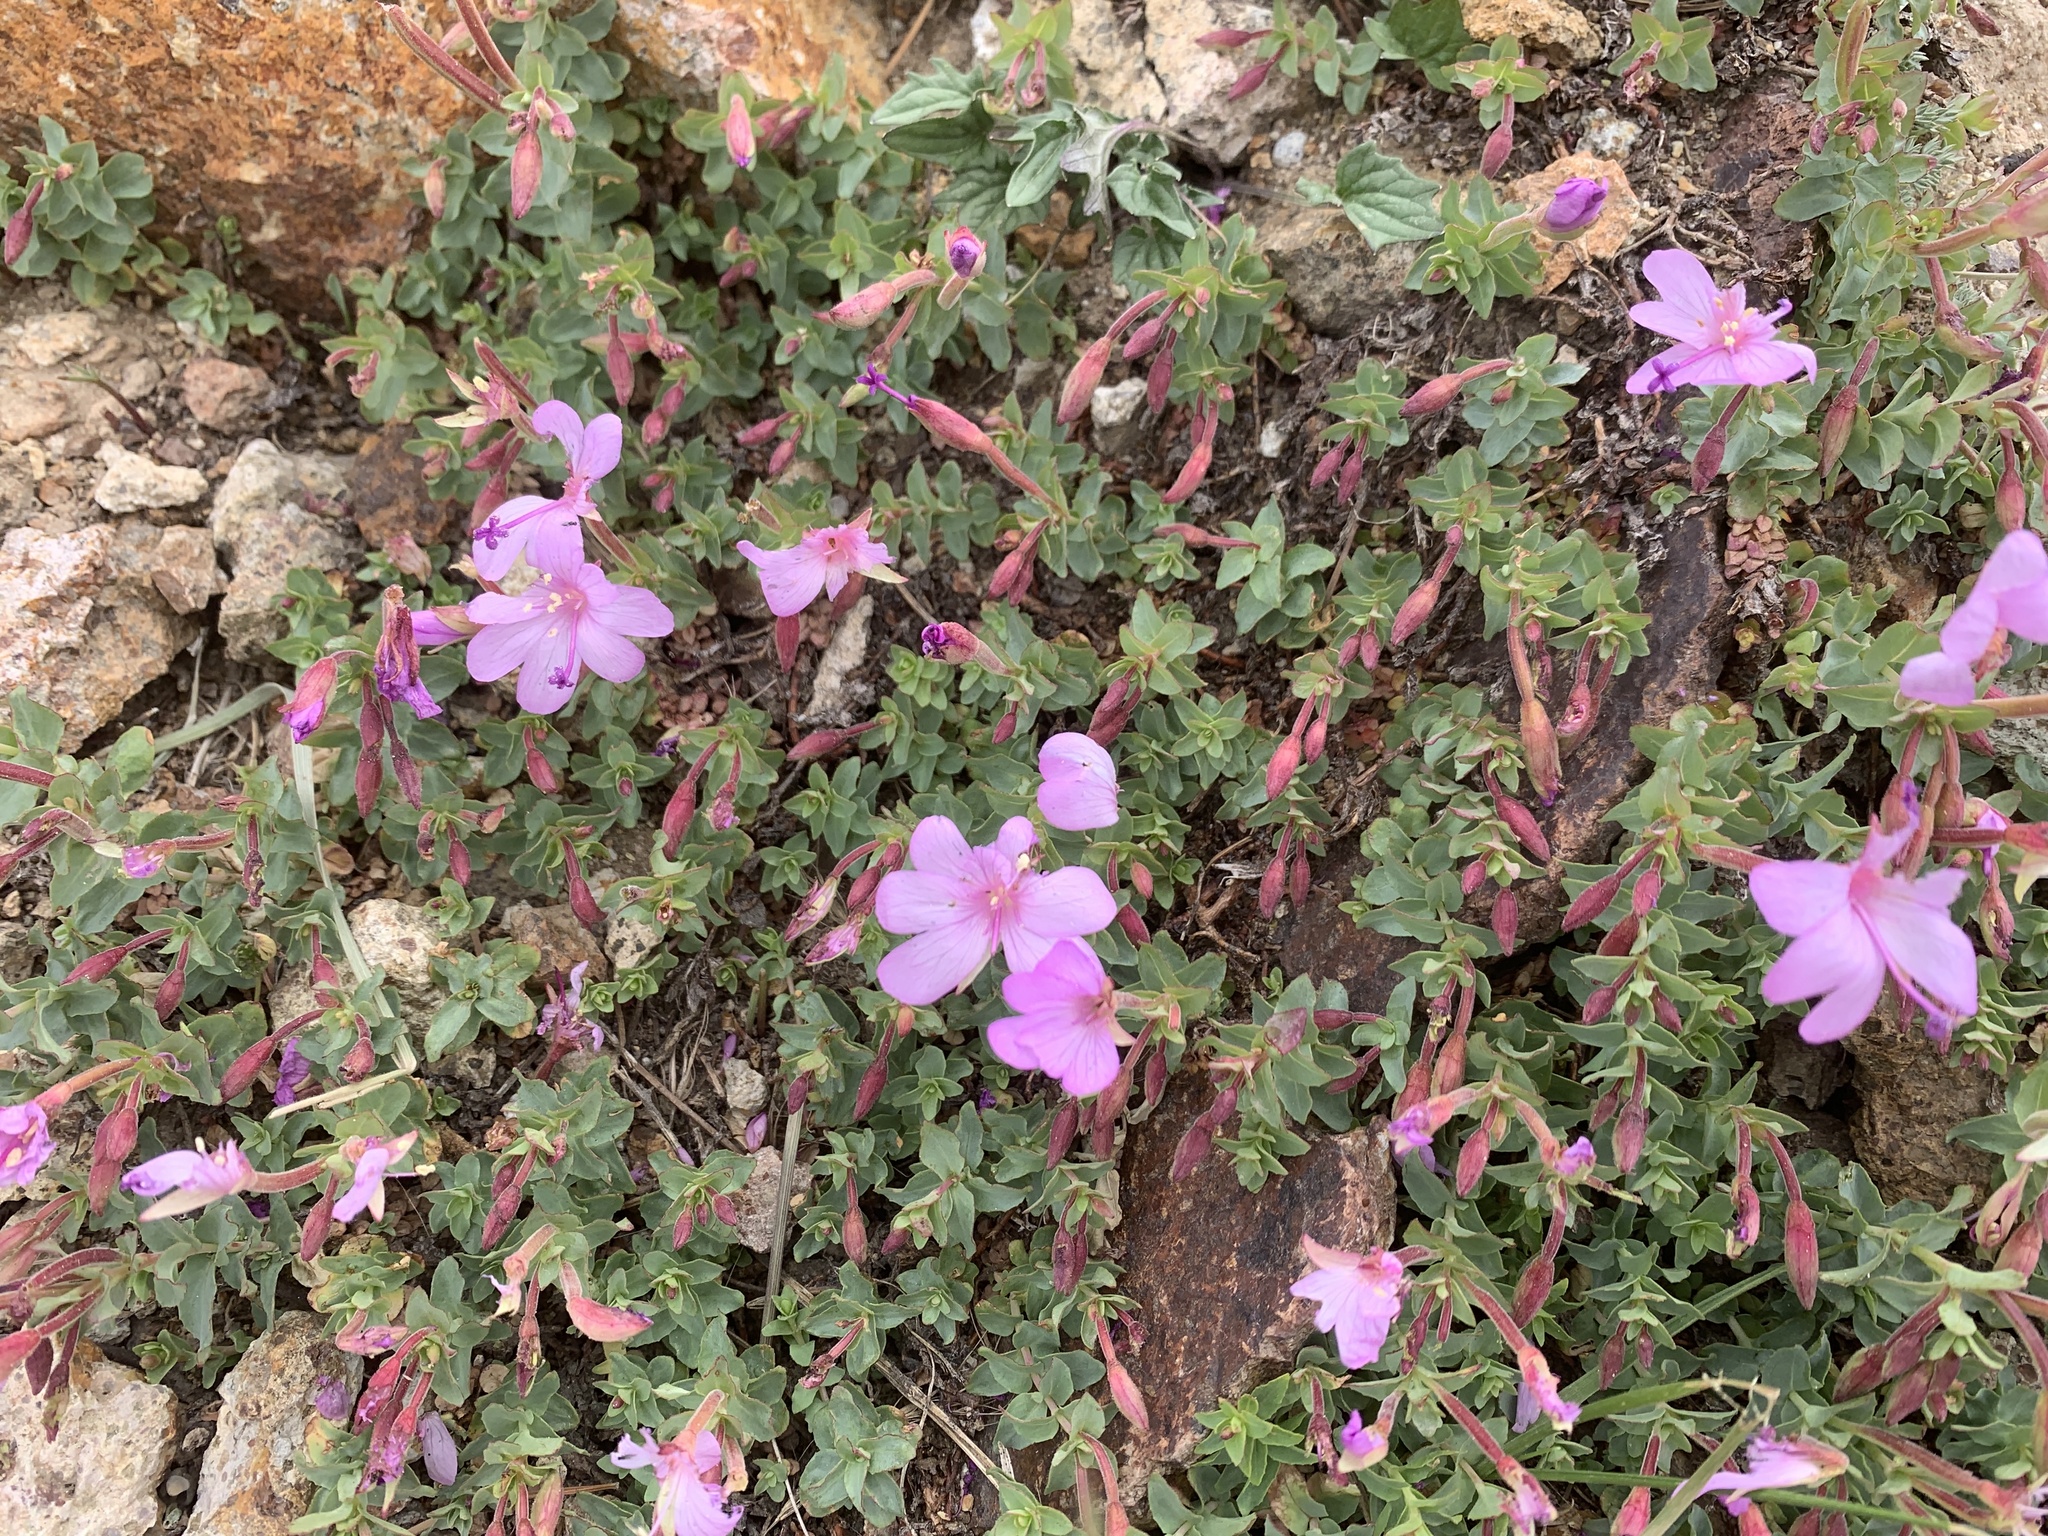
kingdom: Plantae
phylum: Tracheophyta
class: Magnoliopsida
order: Myrtales
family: Onagraceae
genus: Epilobium
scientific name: Epilobium obcordatum
